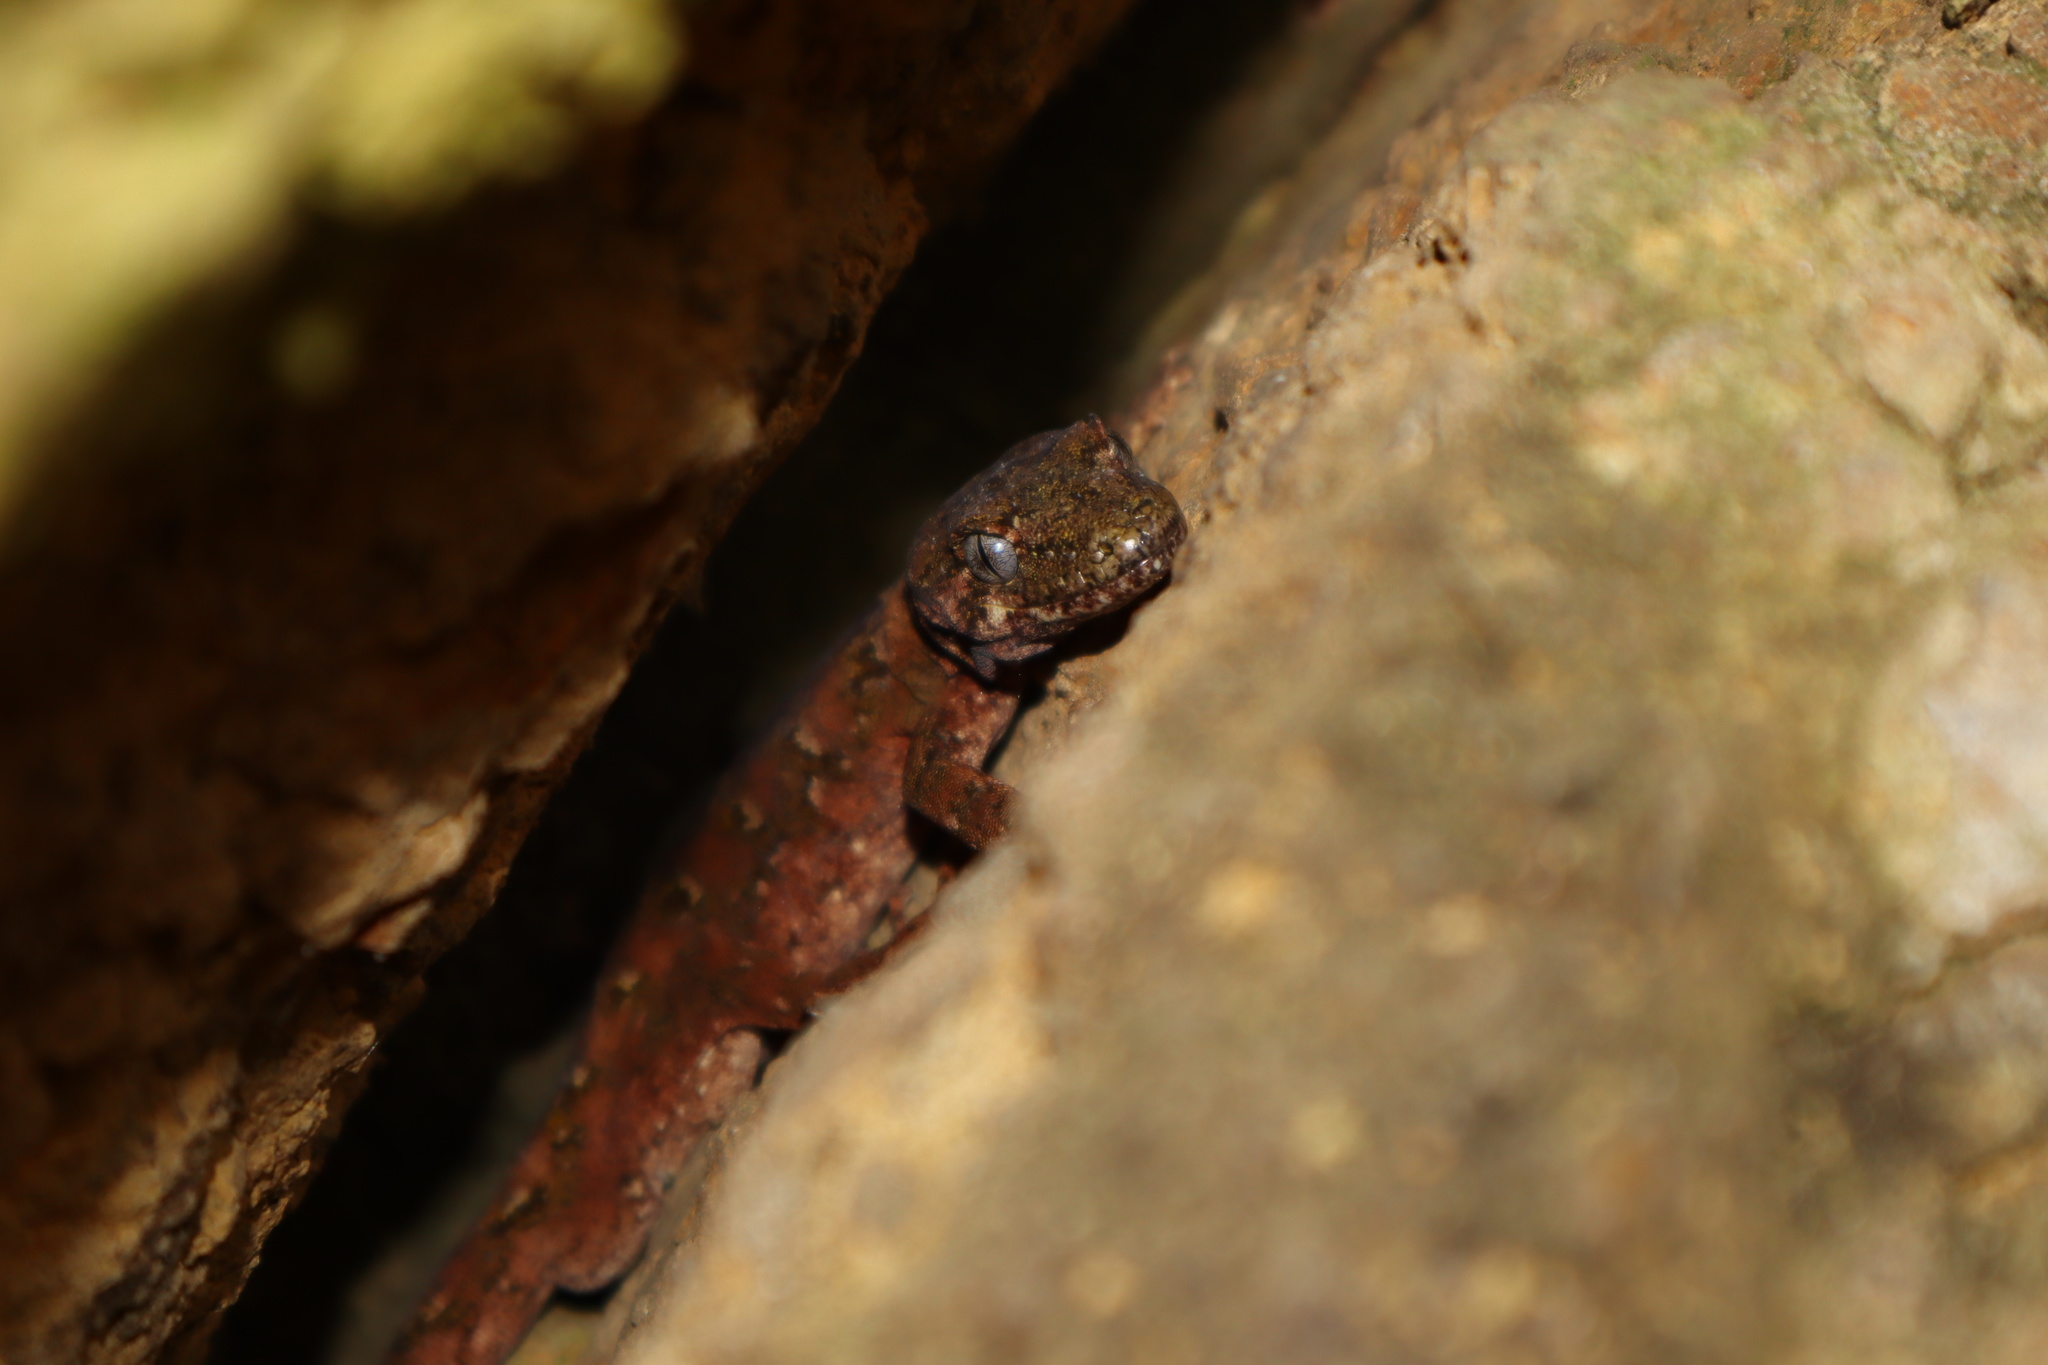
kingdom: Animalia
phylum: Chordata
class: Squamata
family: Diplodactylidae
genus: Mokopirirakau
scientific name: Mokopirirakau
